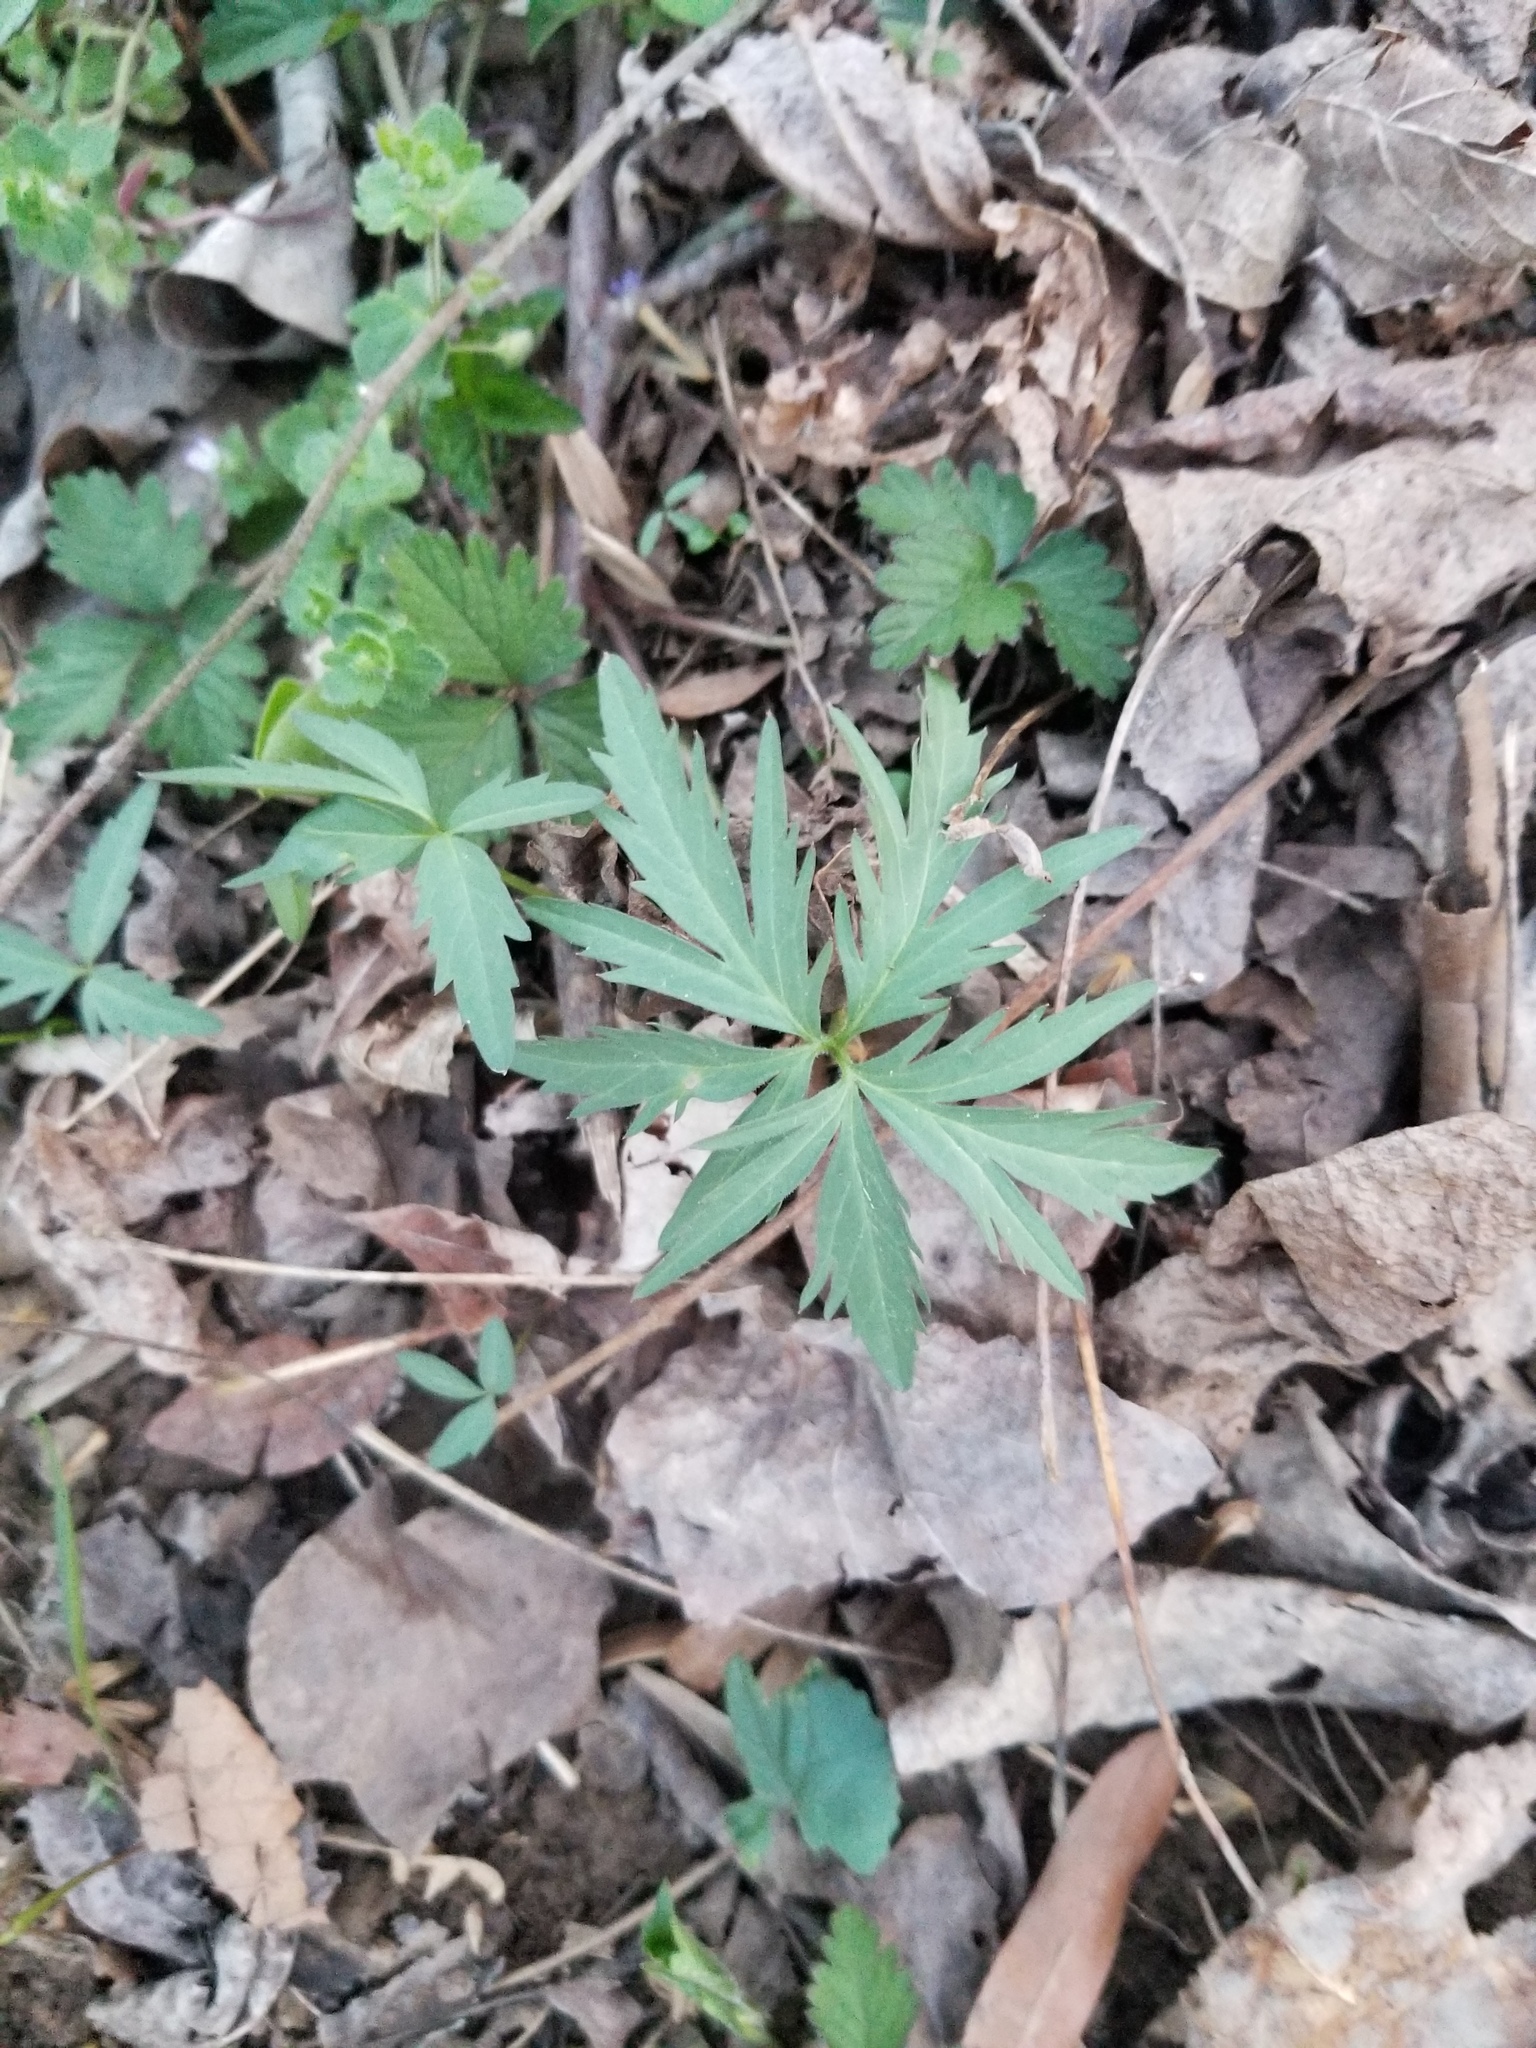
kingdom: Plantae
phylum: Tracheophyta
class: Magnoliopsida
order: Brassicales
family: Brassicaceae
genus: Cardamine
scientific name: Cardamine concatenata
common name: Cut-leaf toothcup
